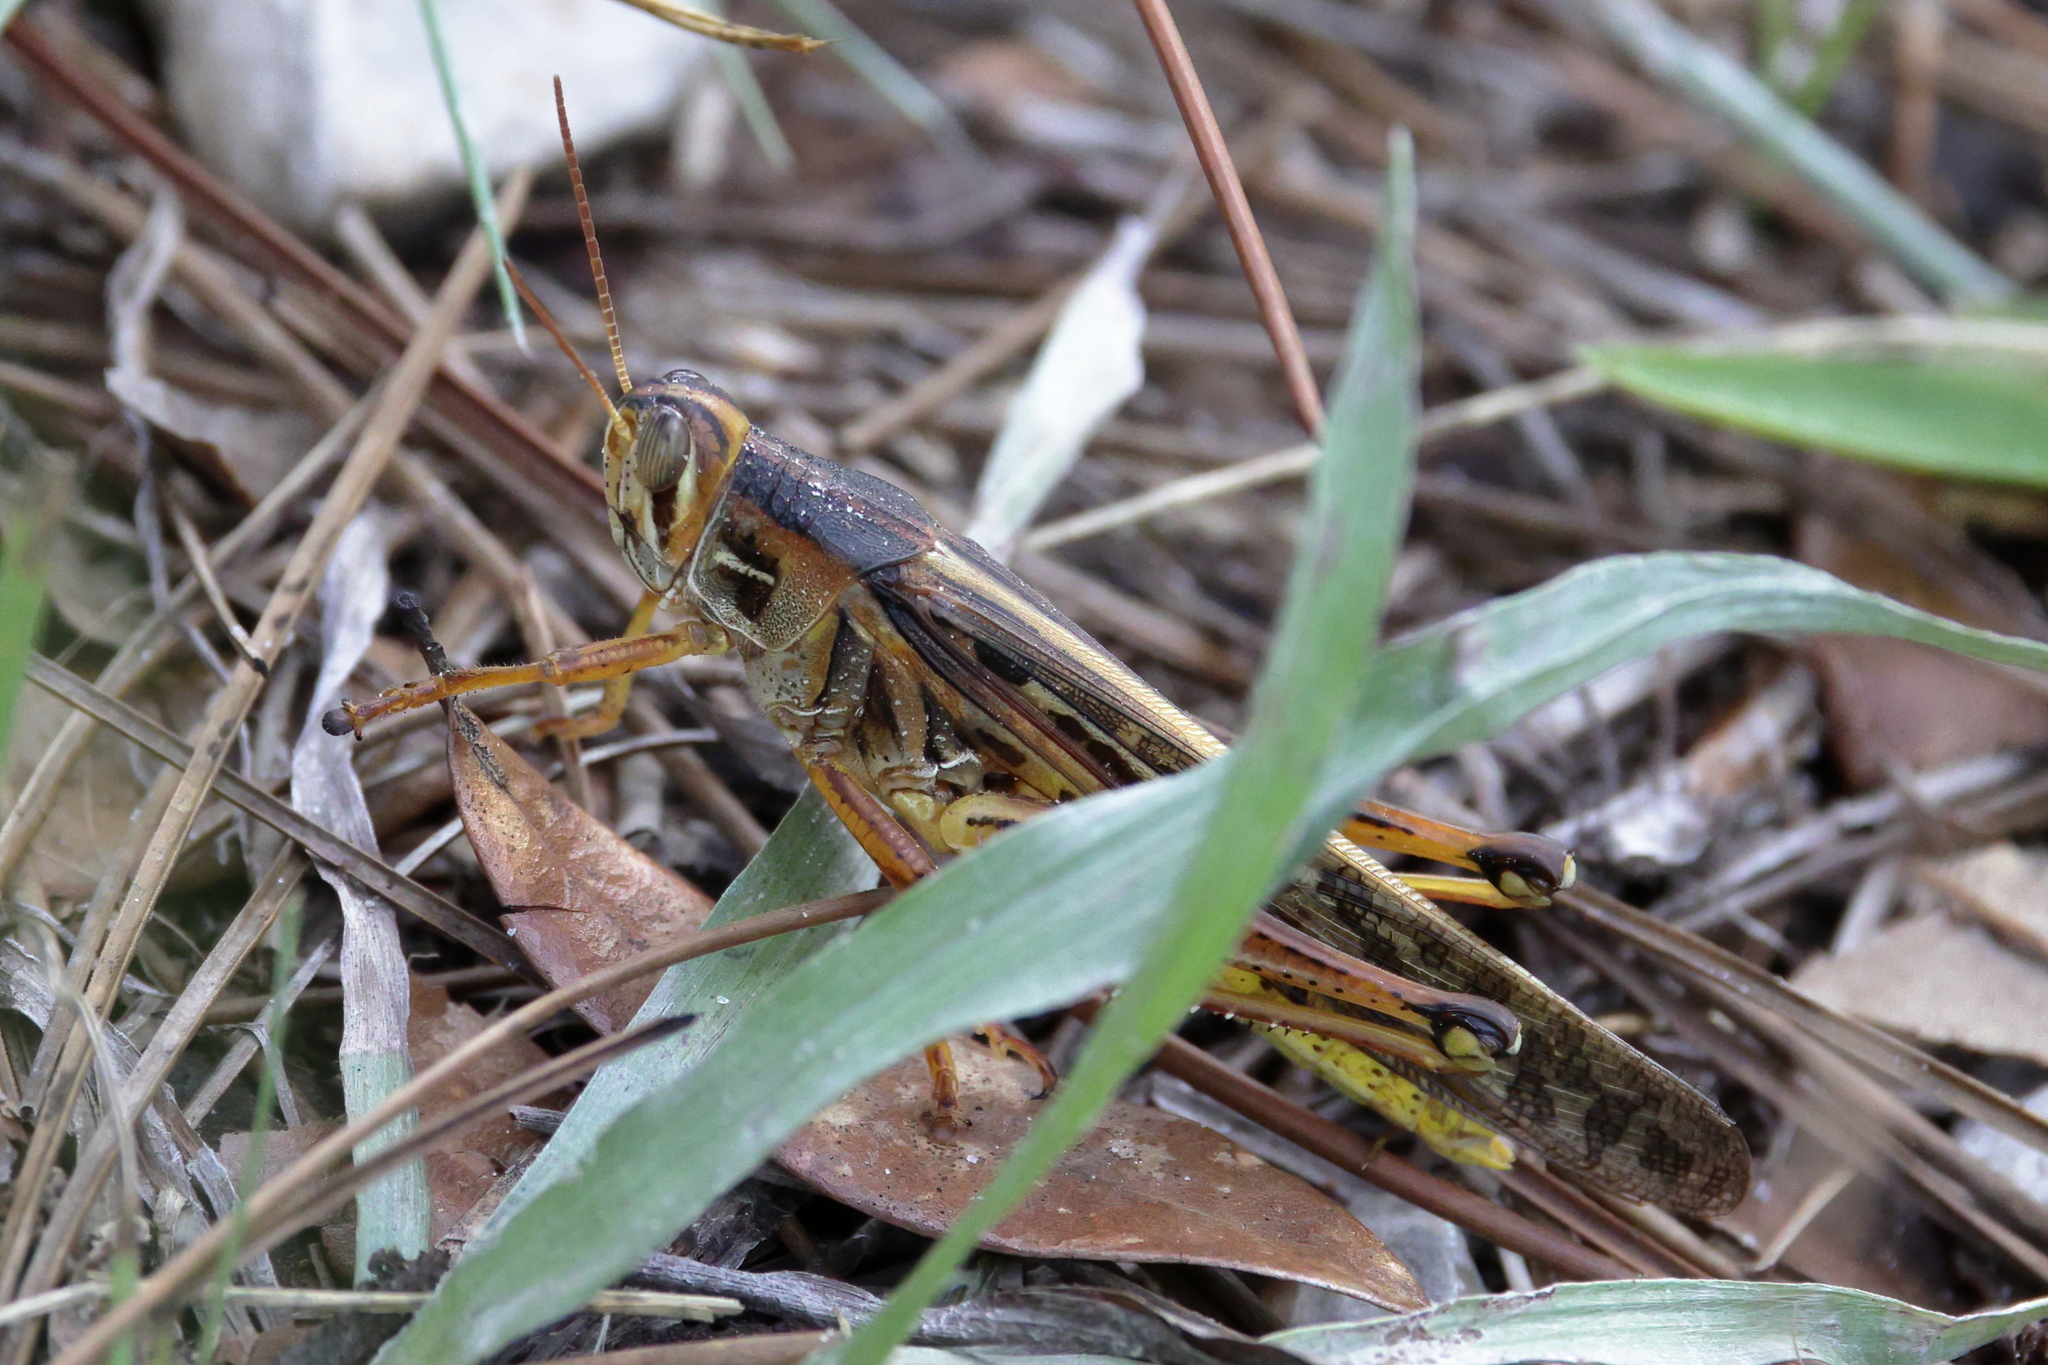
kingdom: Animalia
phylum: Arthropoda
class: Insecta
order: Orthoptera
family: Acrididae
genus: Schistocerca
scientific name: Schistocerca americana
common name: American bird locust
